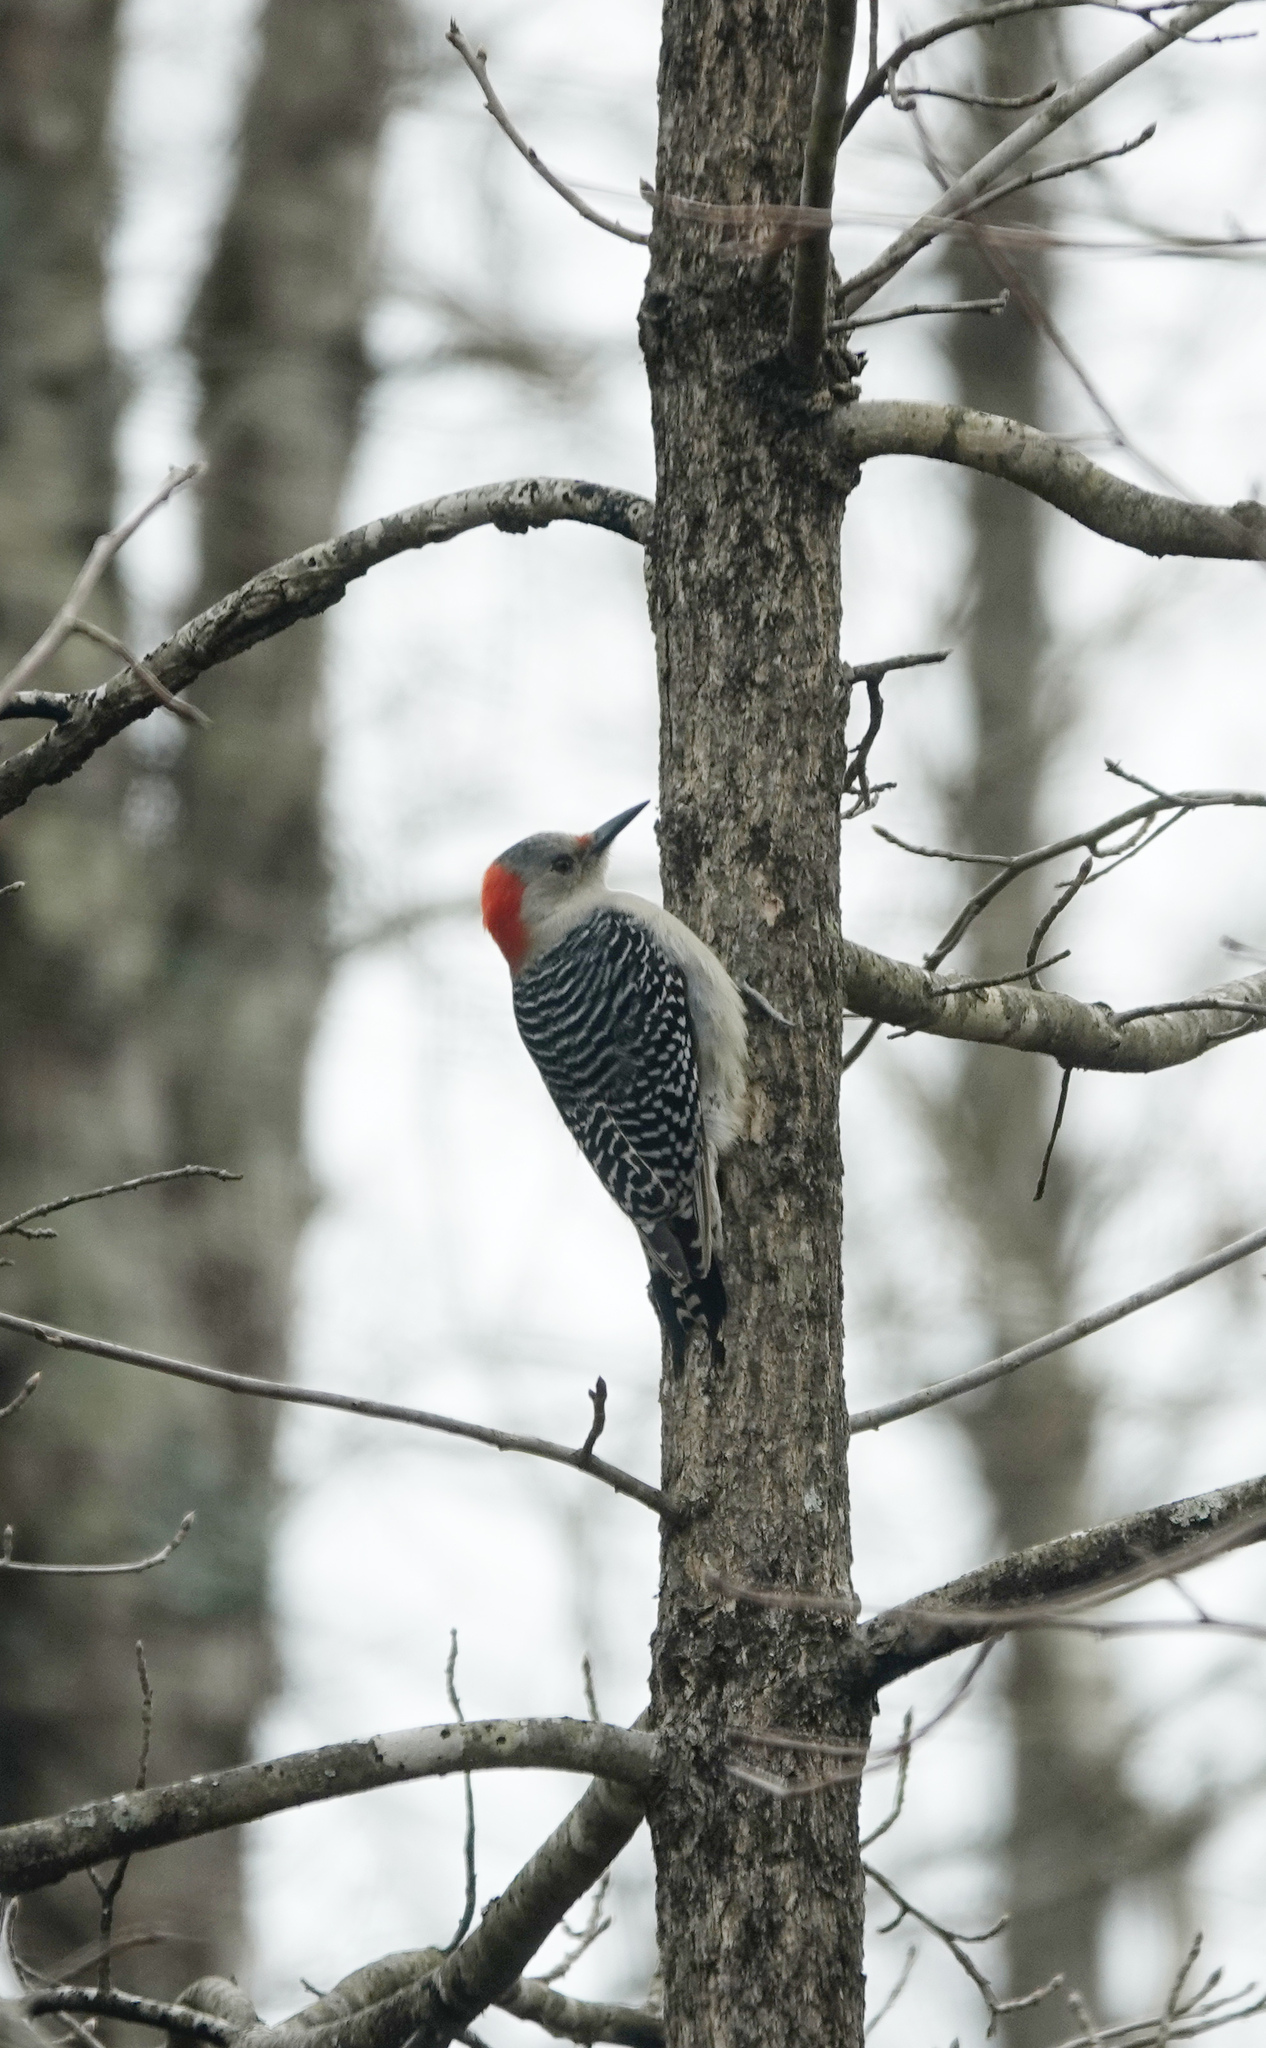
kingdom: Animalia
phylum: Chordata
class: Aves
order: Piciformes
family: Picidae
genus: Melanerpes
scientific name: Melanerpes carolinus
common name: Red-bellied woodpecker
